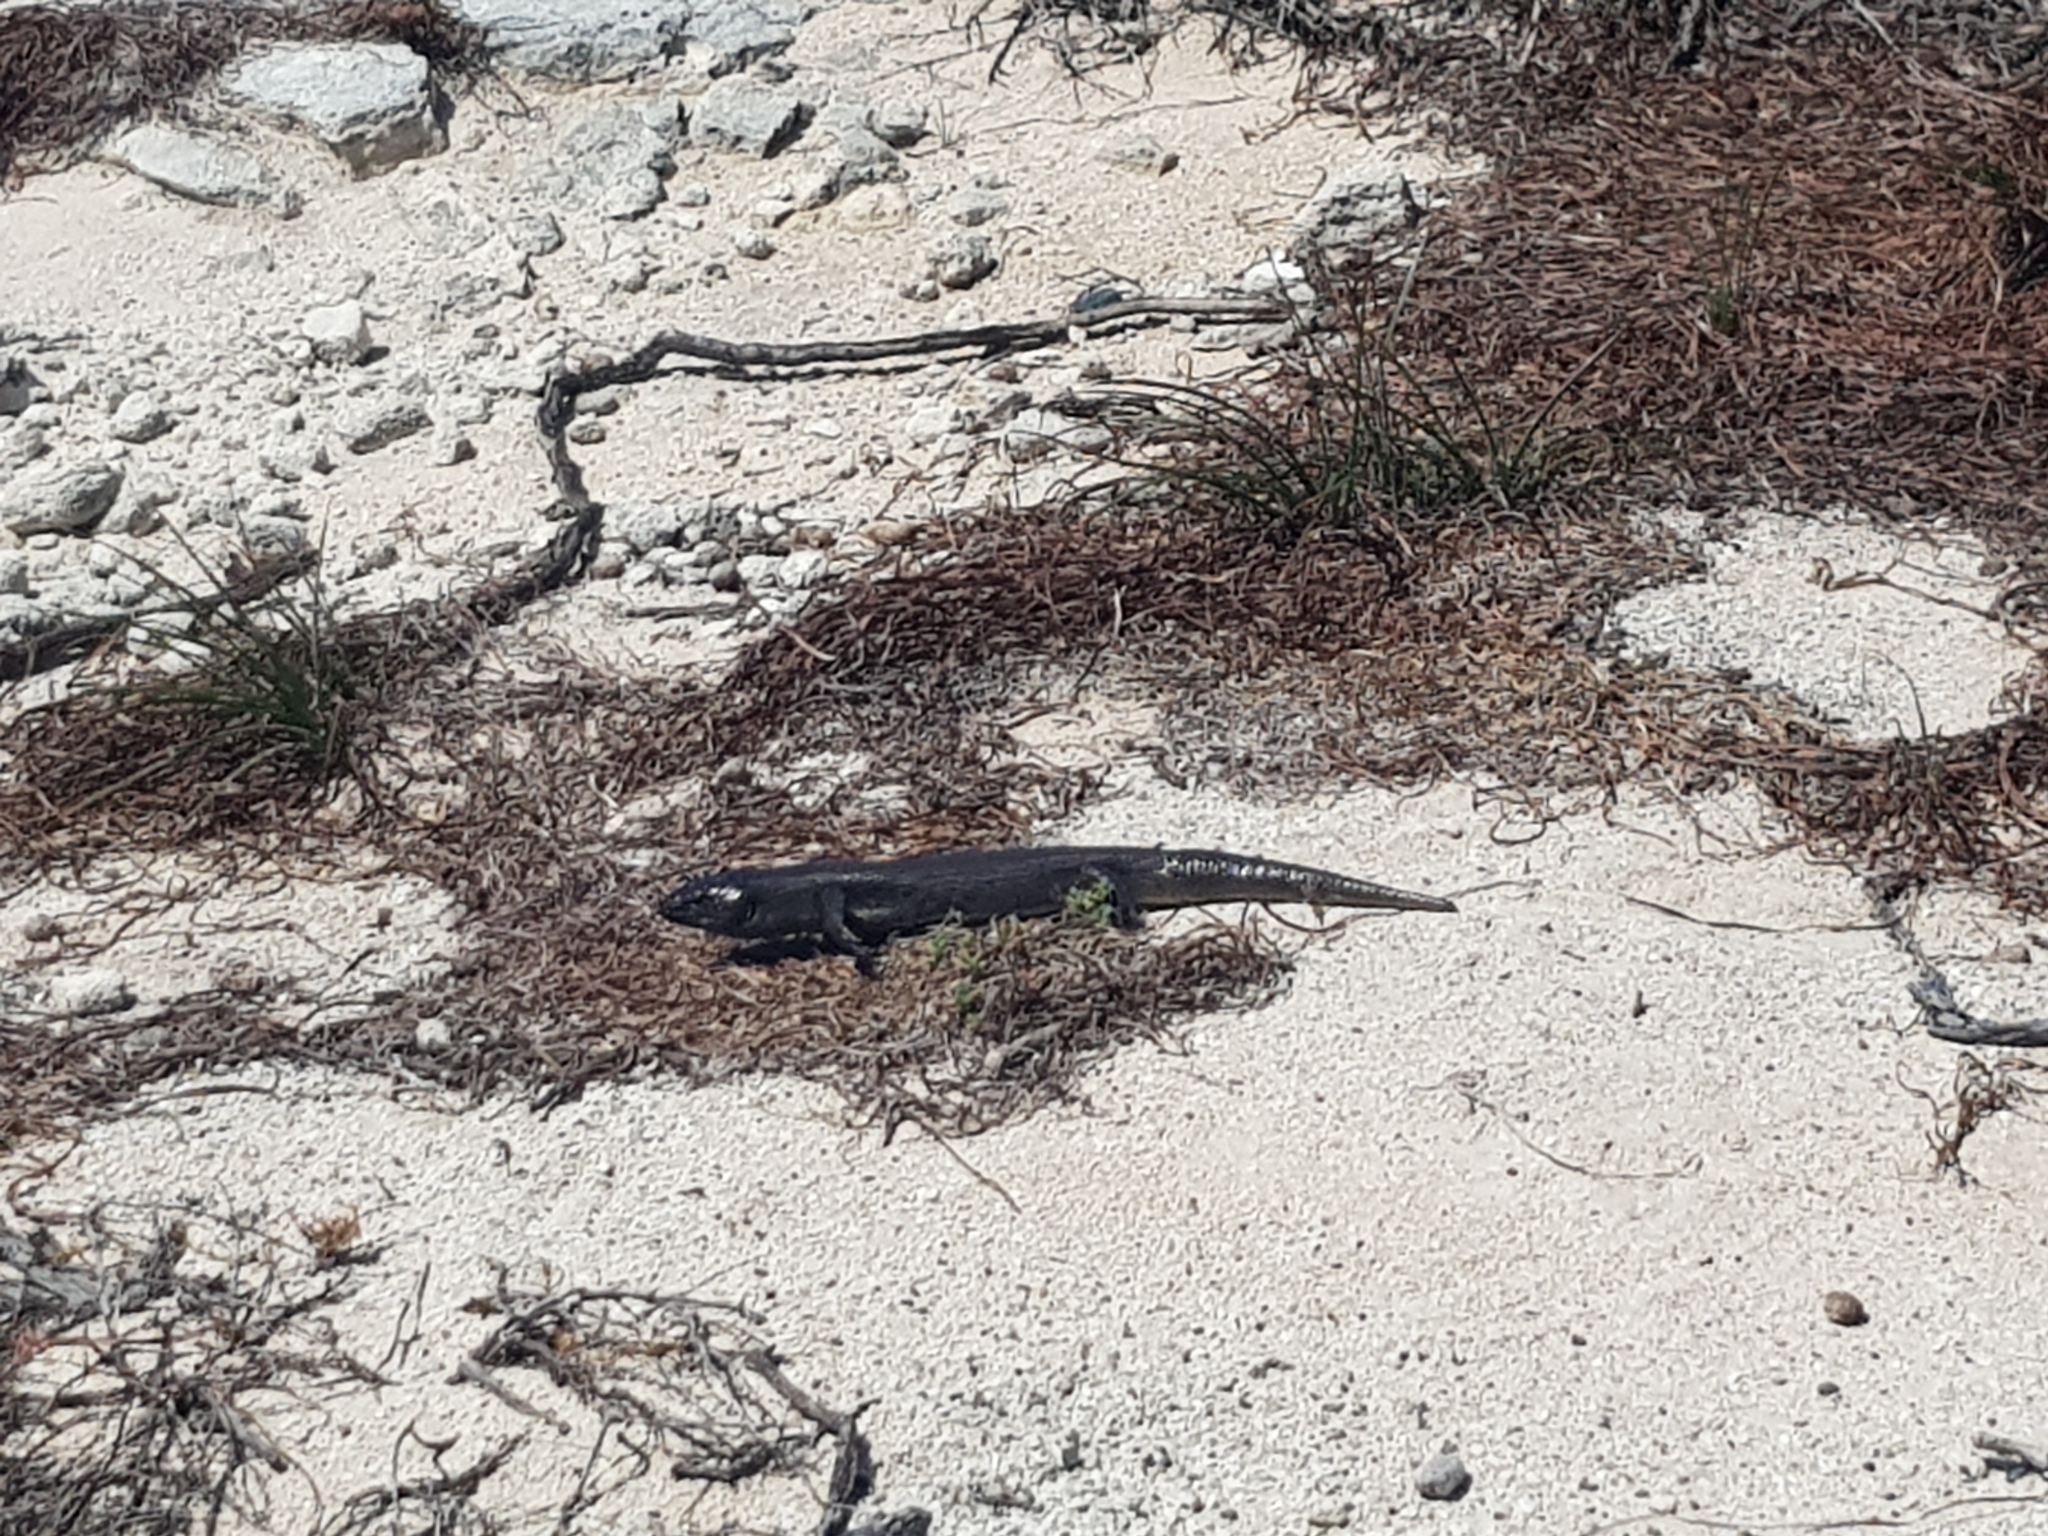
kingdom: Animalia
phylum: Chordata
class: Squamata
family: Scincidae
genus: Egernia
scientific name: Egernia kingii
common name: King's skink
